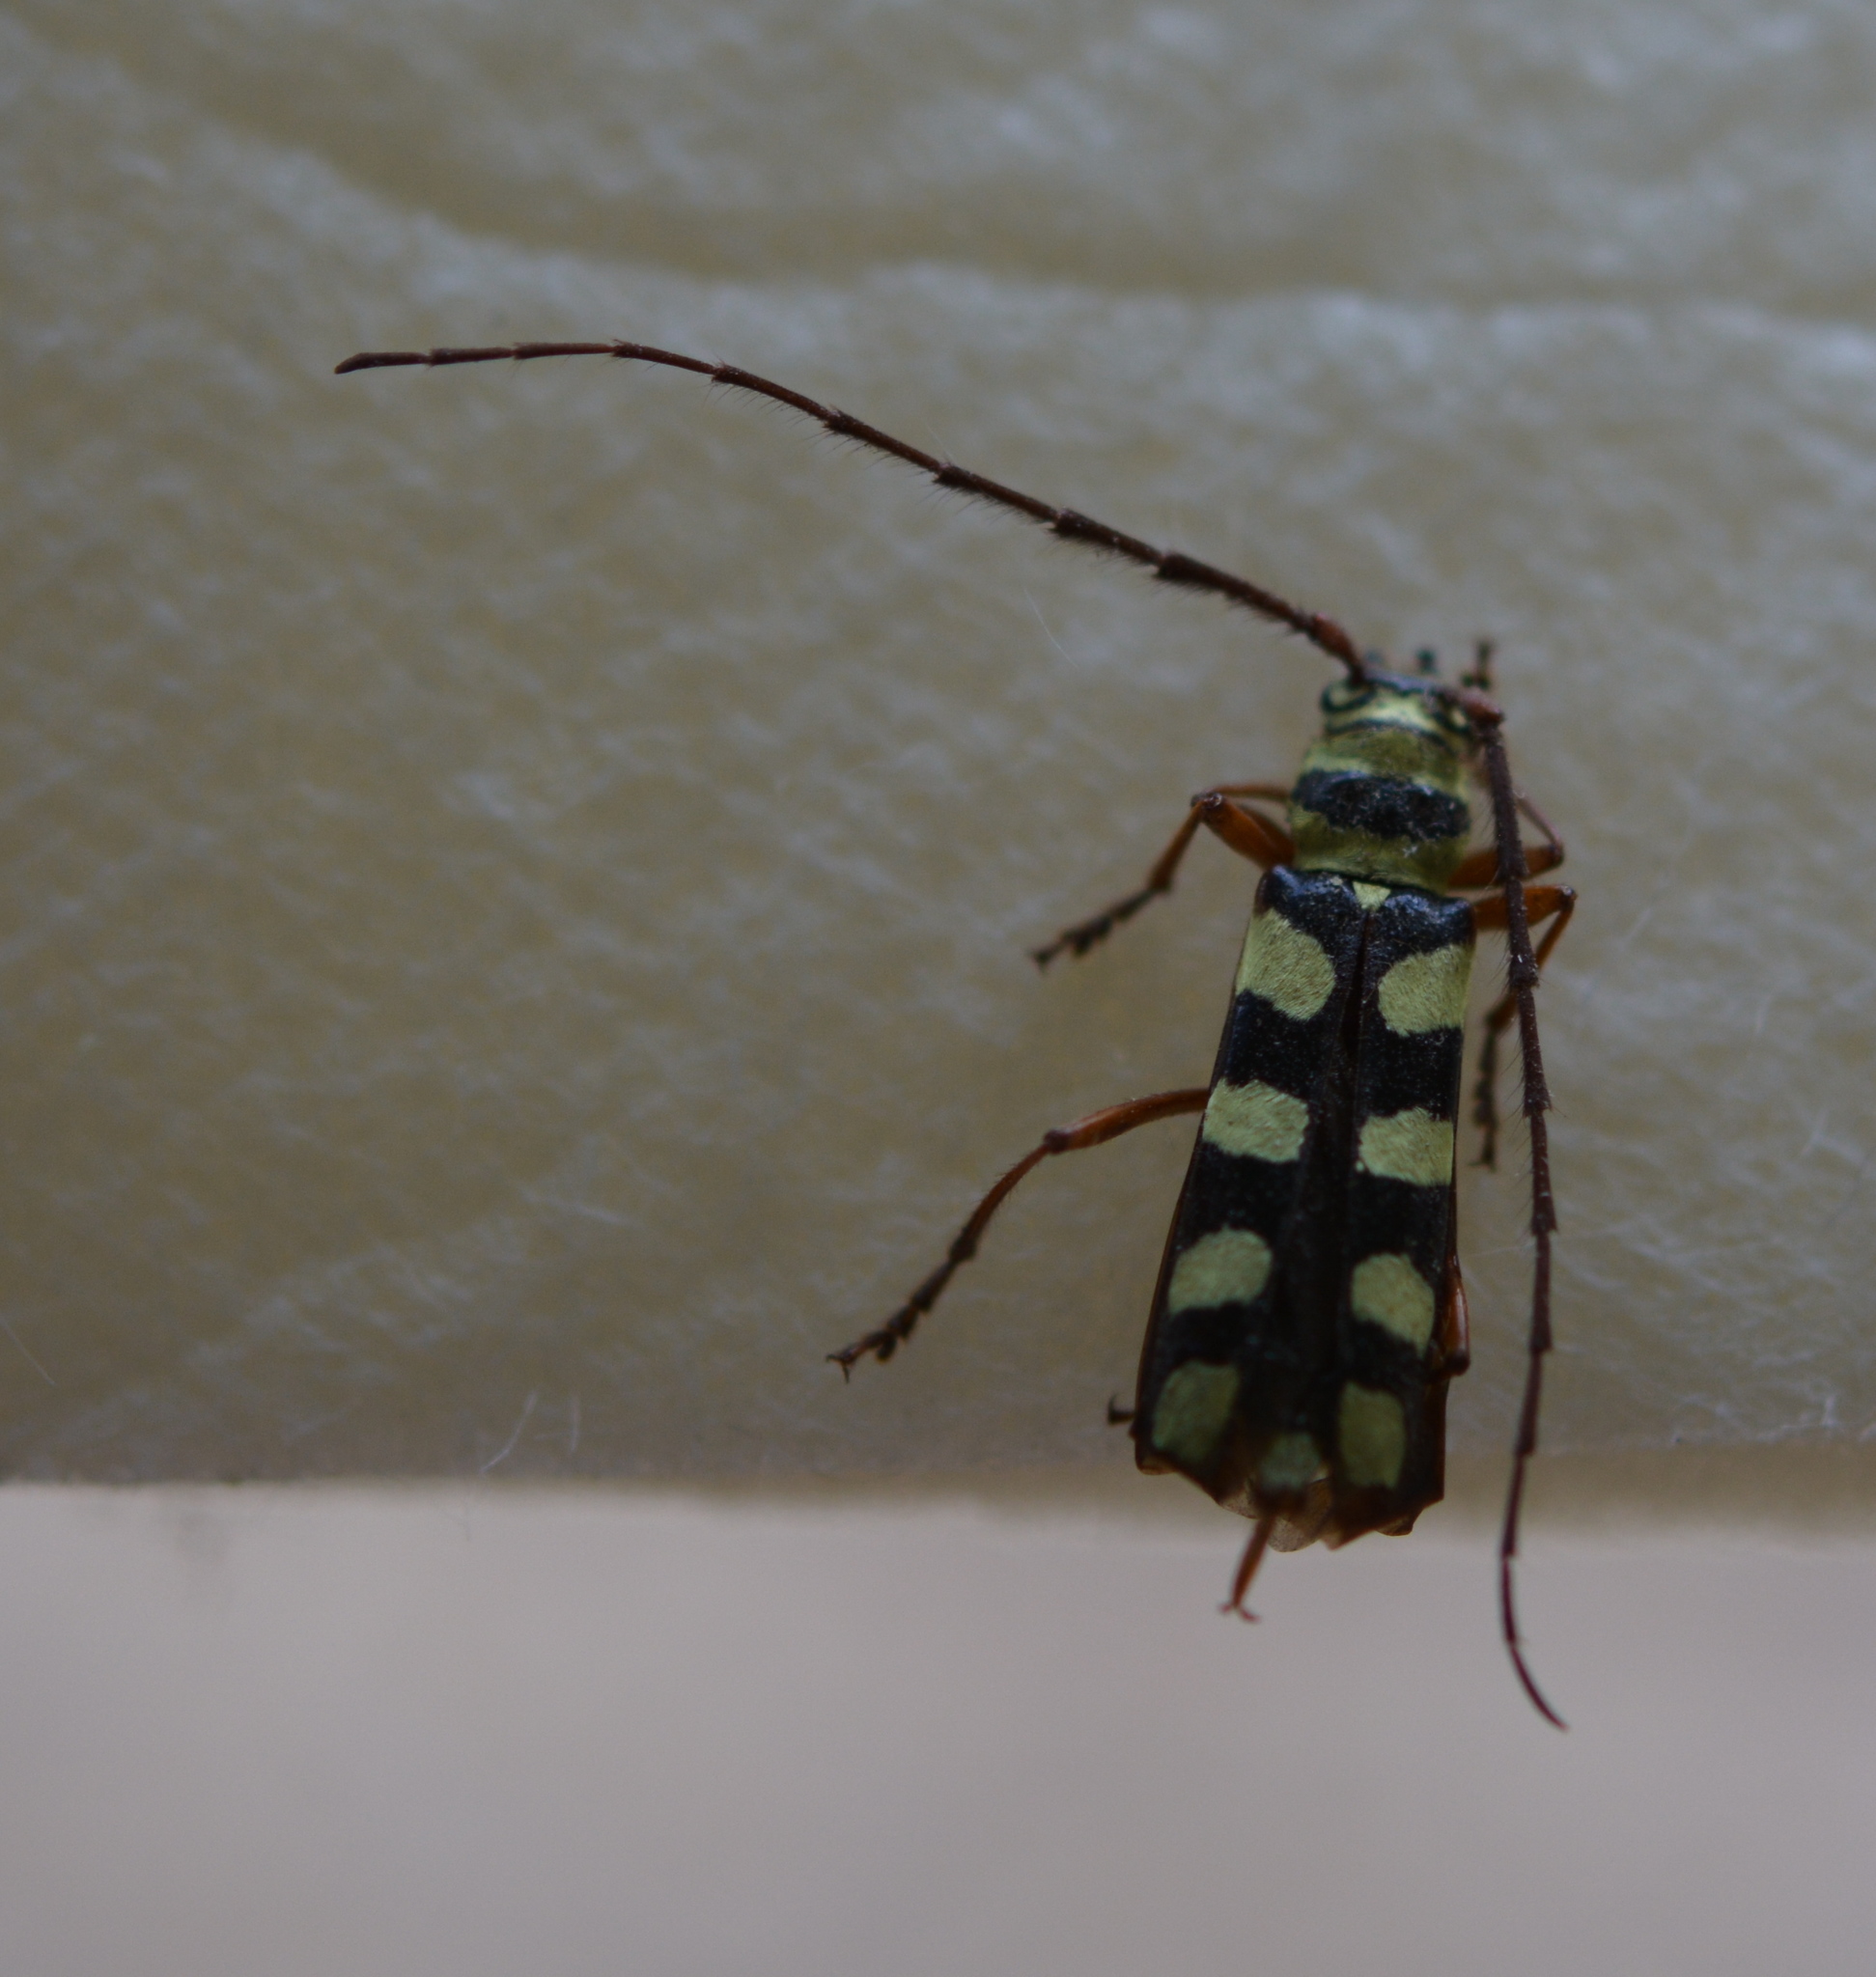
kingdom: Animalia
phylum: Arthropoda
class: Insecta
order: Coleoptera
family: Cerambycidae
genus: Dryobius
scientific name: Dryobius sexnotatus
